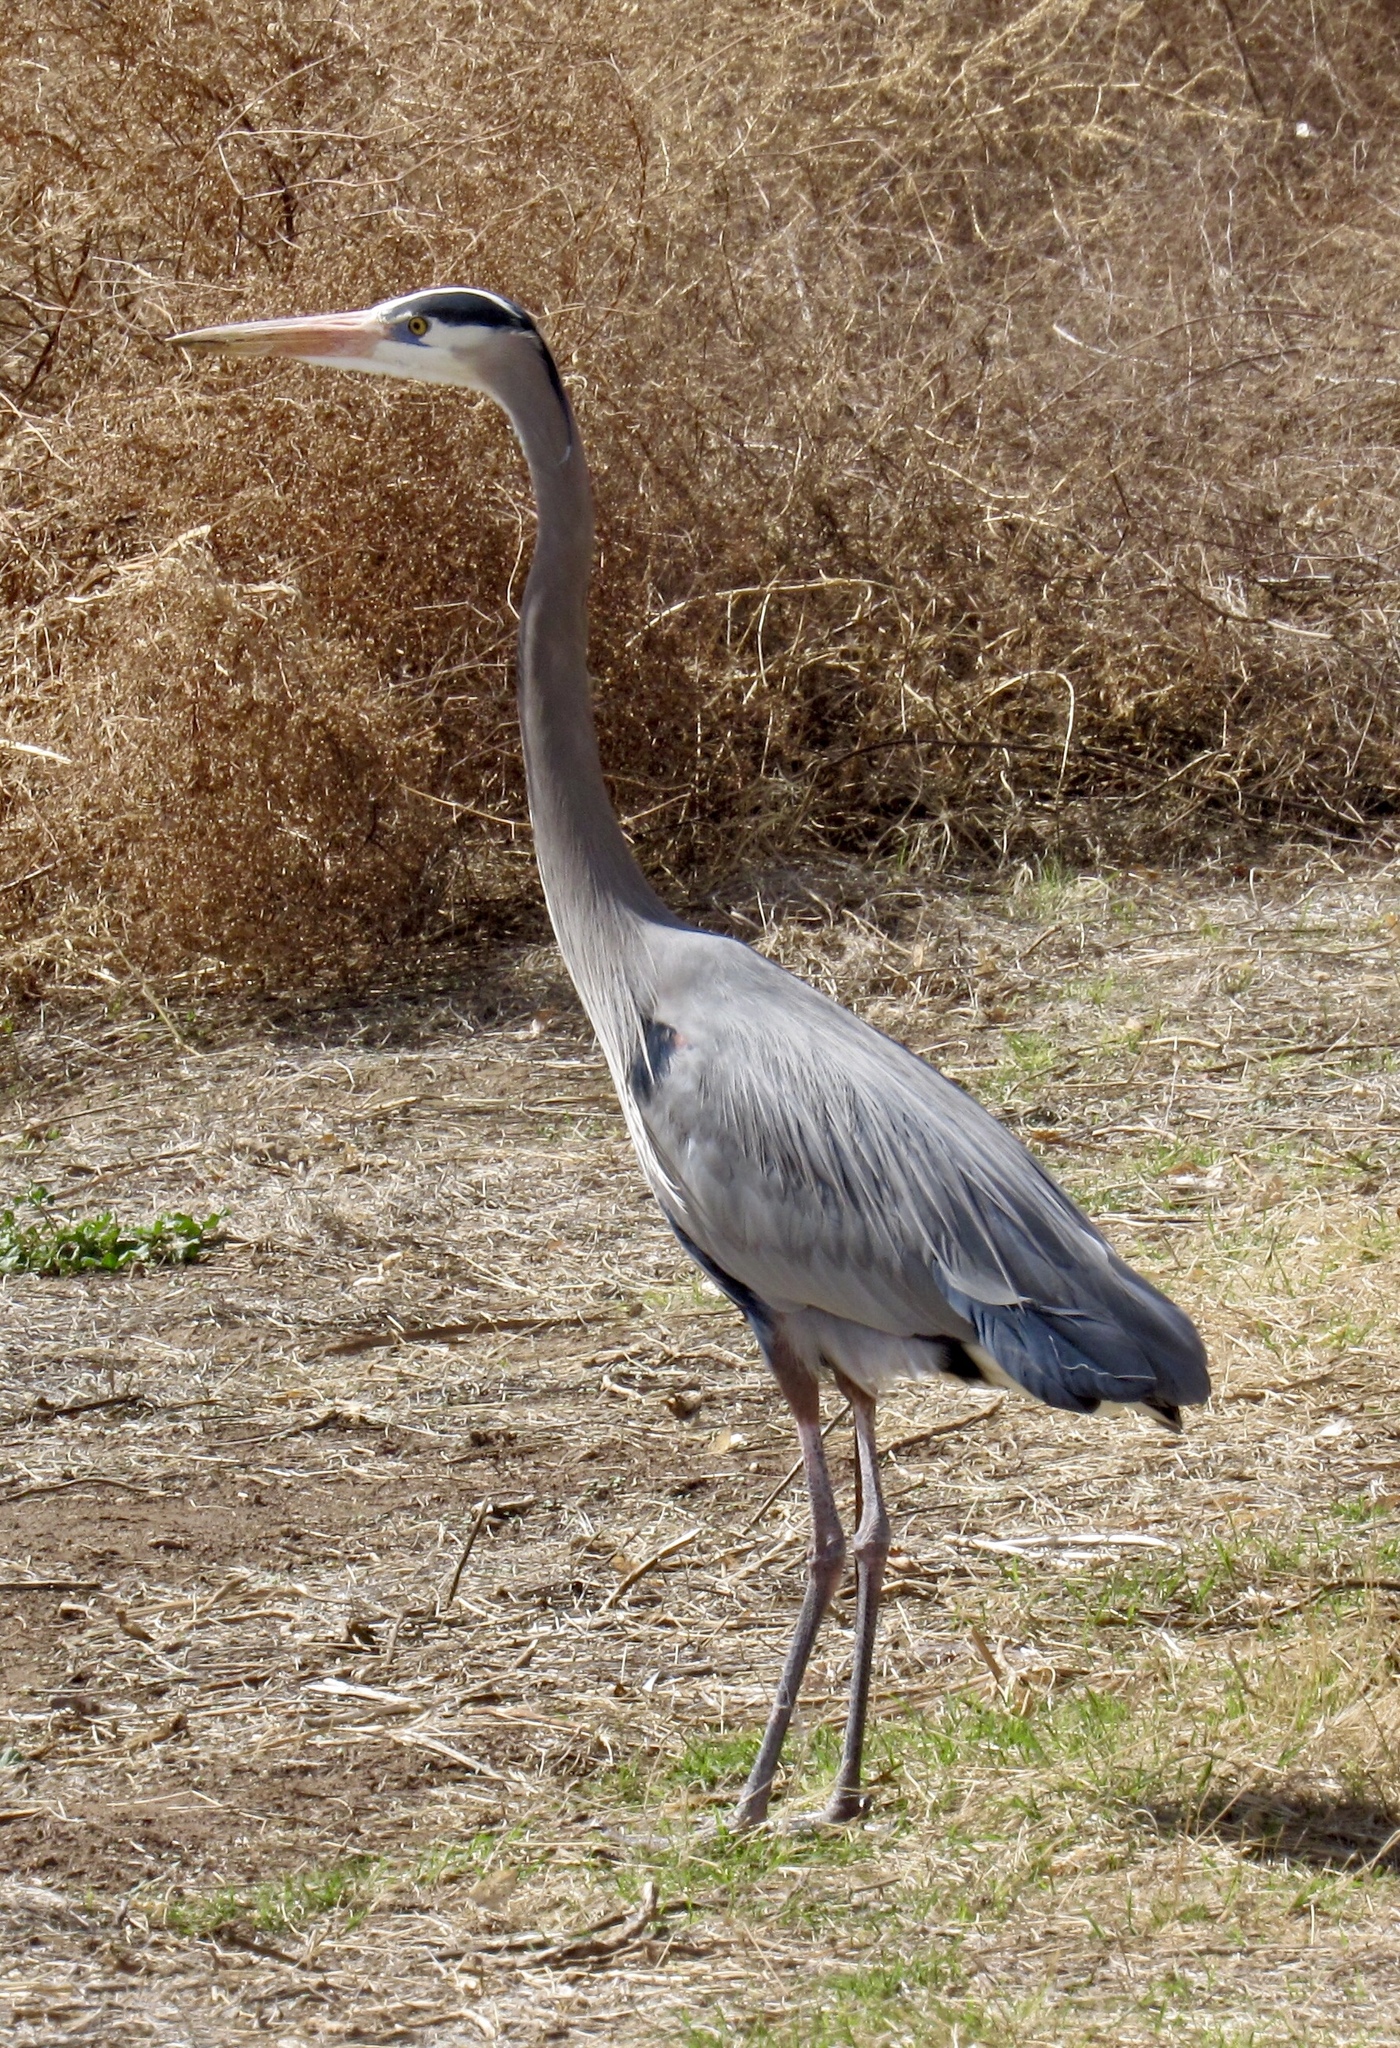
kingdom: Animalia
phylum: Chordata
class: Aves
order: Pelecaniformes
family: Ardeidae
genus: Ardea
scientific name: Ardea herodias
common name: Great blue heron
